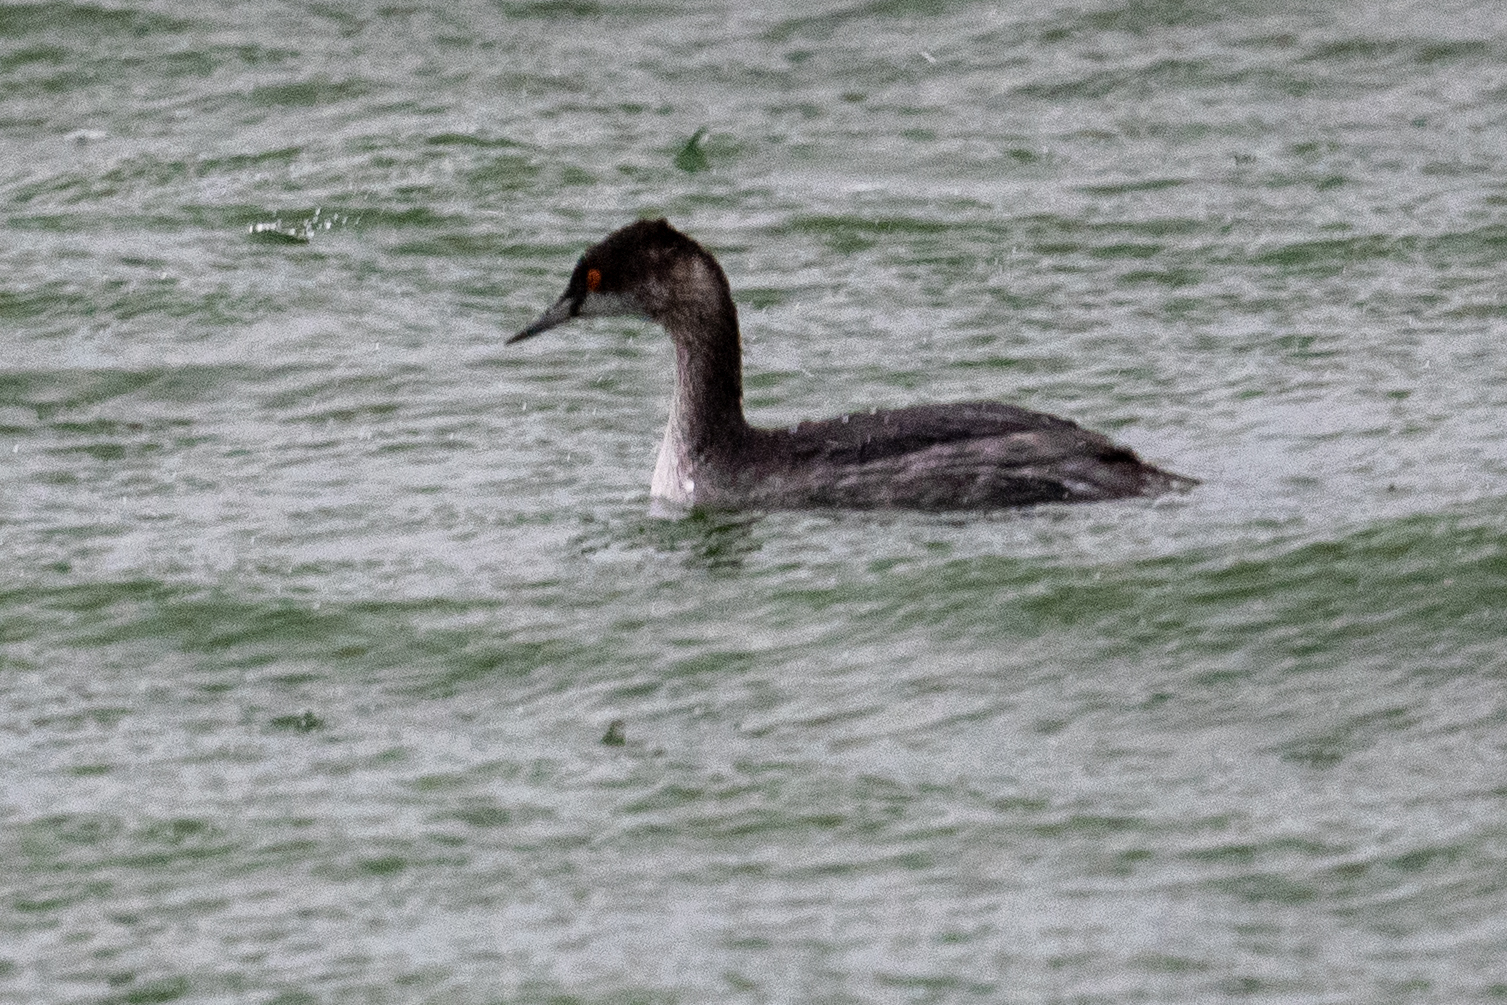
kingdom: Animalia
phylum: Chordata
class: Aves
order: Podicipediformes
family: Podicipedidae
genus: Podiceps
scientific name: Podiceps nigricollis
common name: Black-necked grebe
